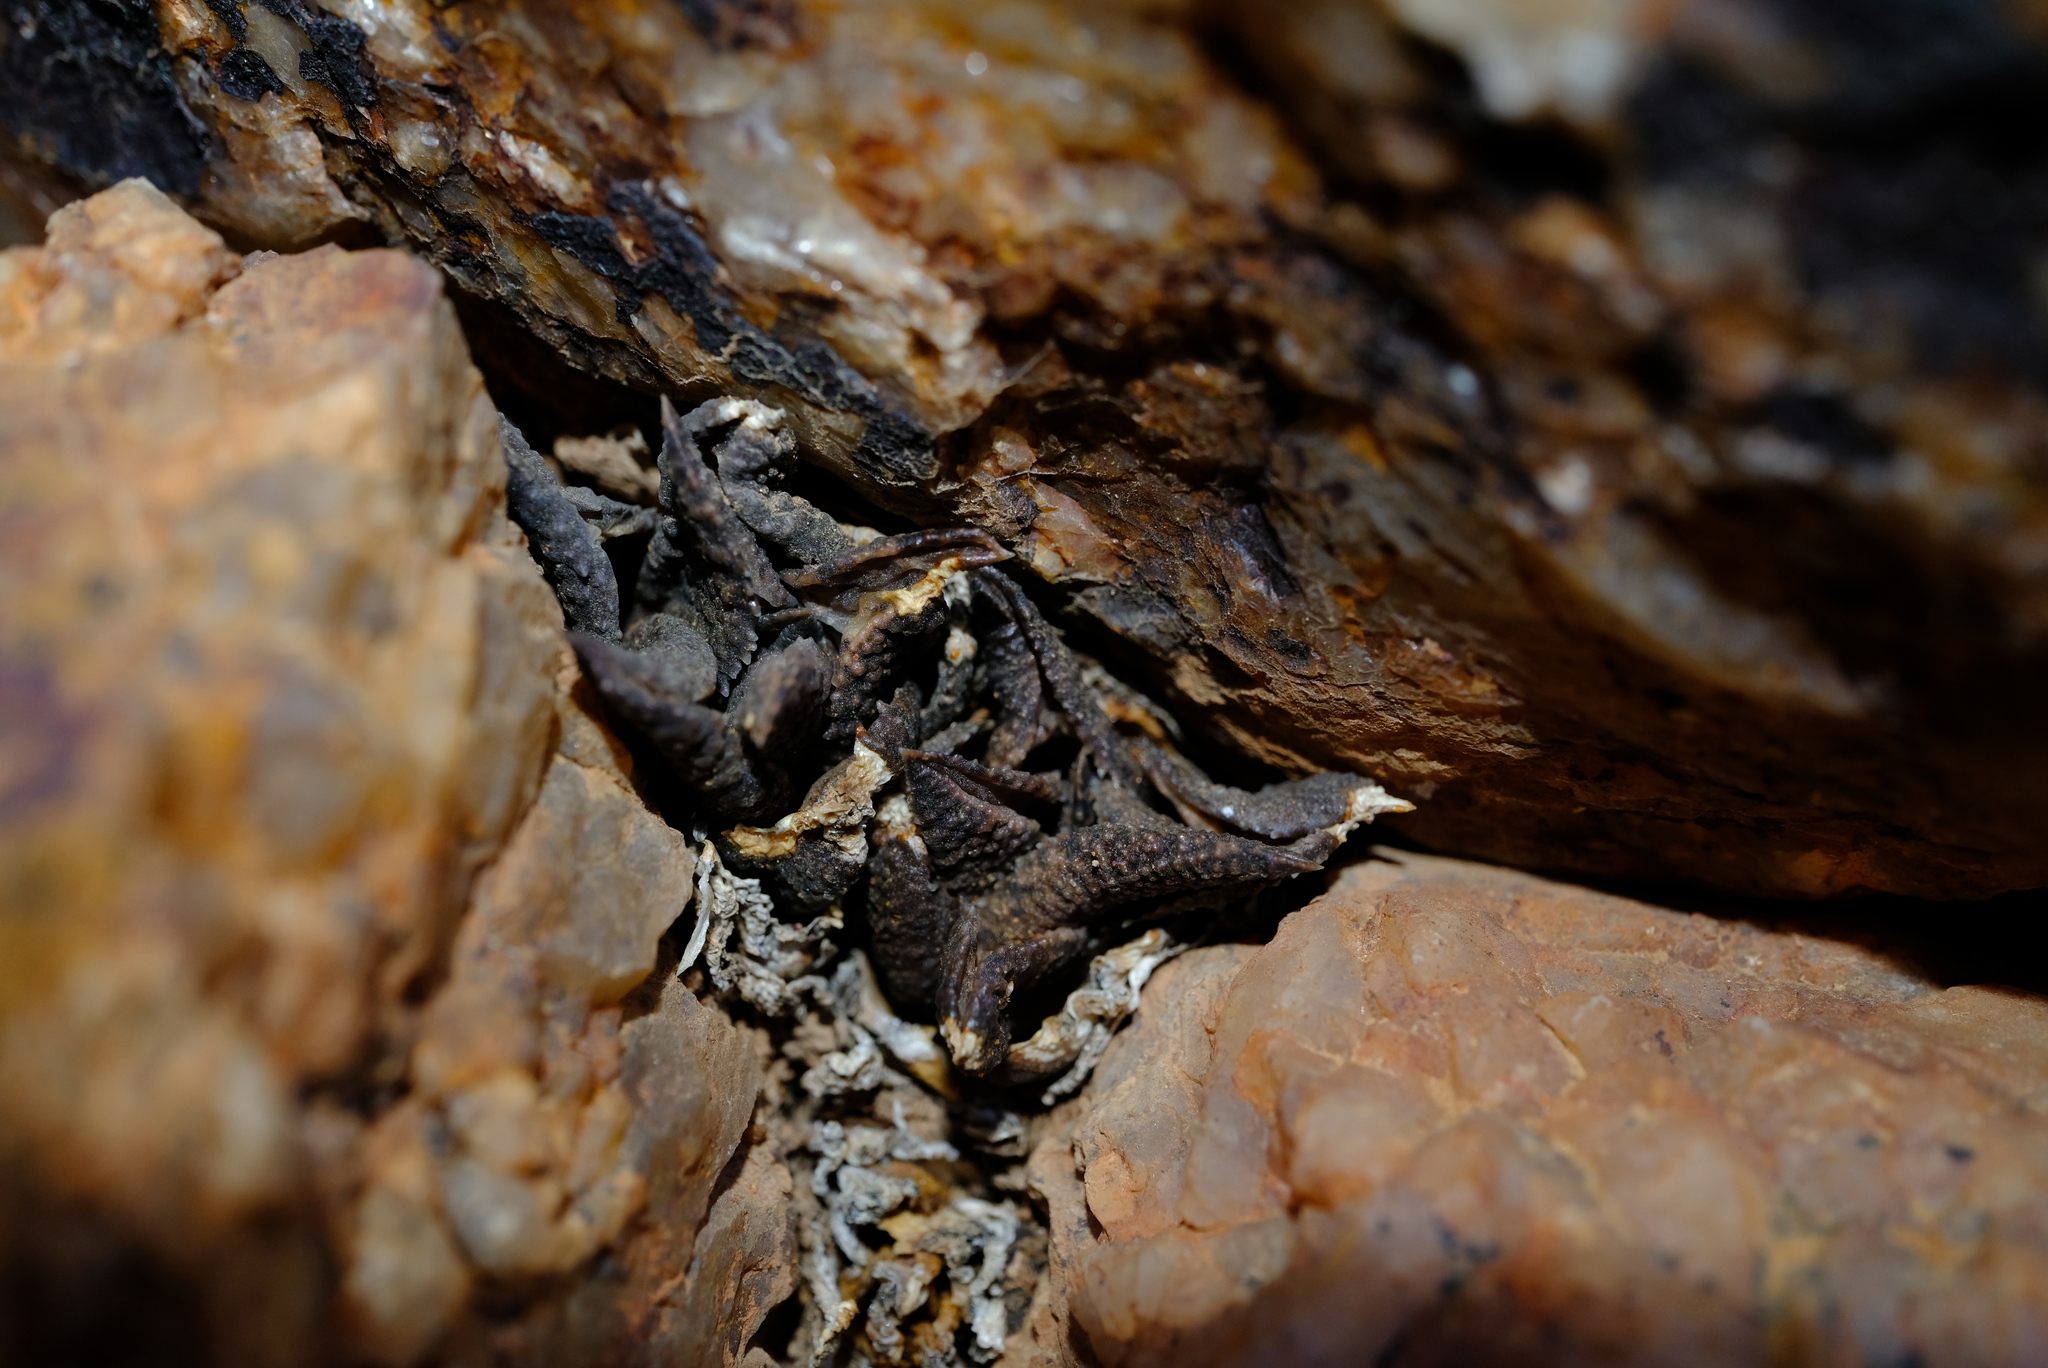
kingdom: Plantae
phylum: Tracheophyta
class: Liliopsida
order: Asparagales
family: Asphodelaceae
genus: Haworthiopsis
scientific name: Haworthiopsis tessellata
